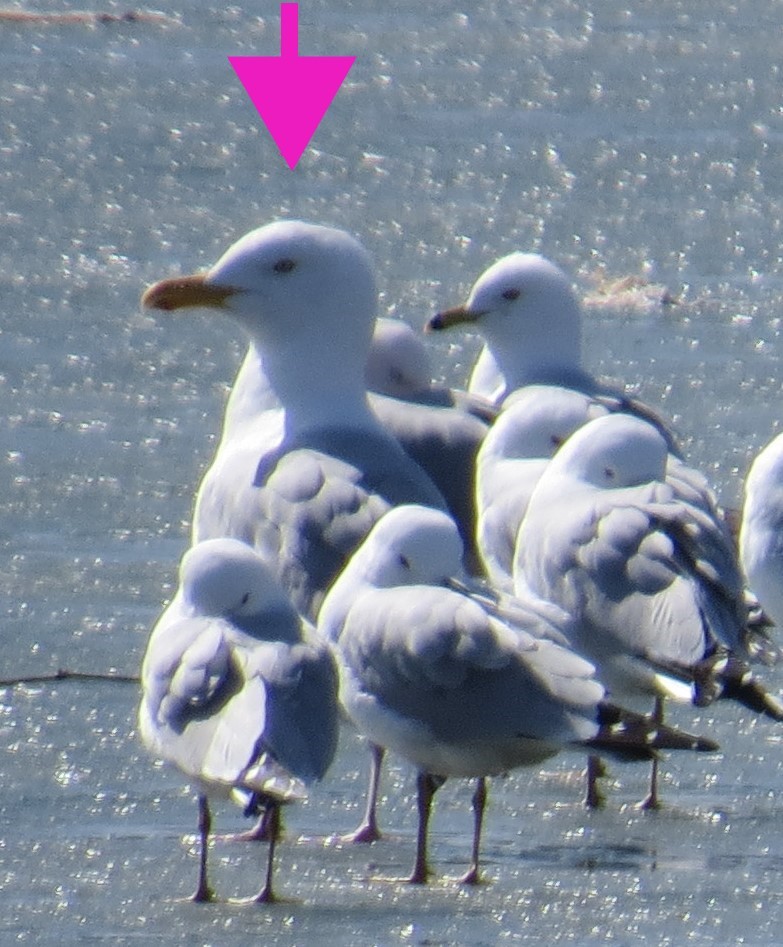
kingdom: Animalia
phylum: Chordata
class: Aves
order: Charadriiformes
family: Laridae
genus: Larus
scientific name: Larus argentatus
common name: Herring gull
